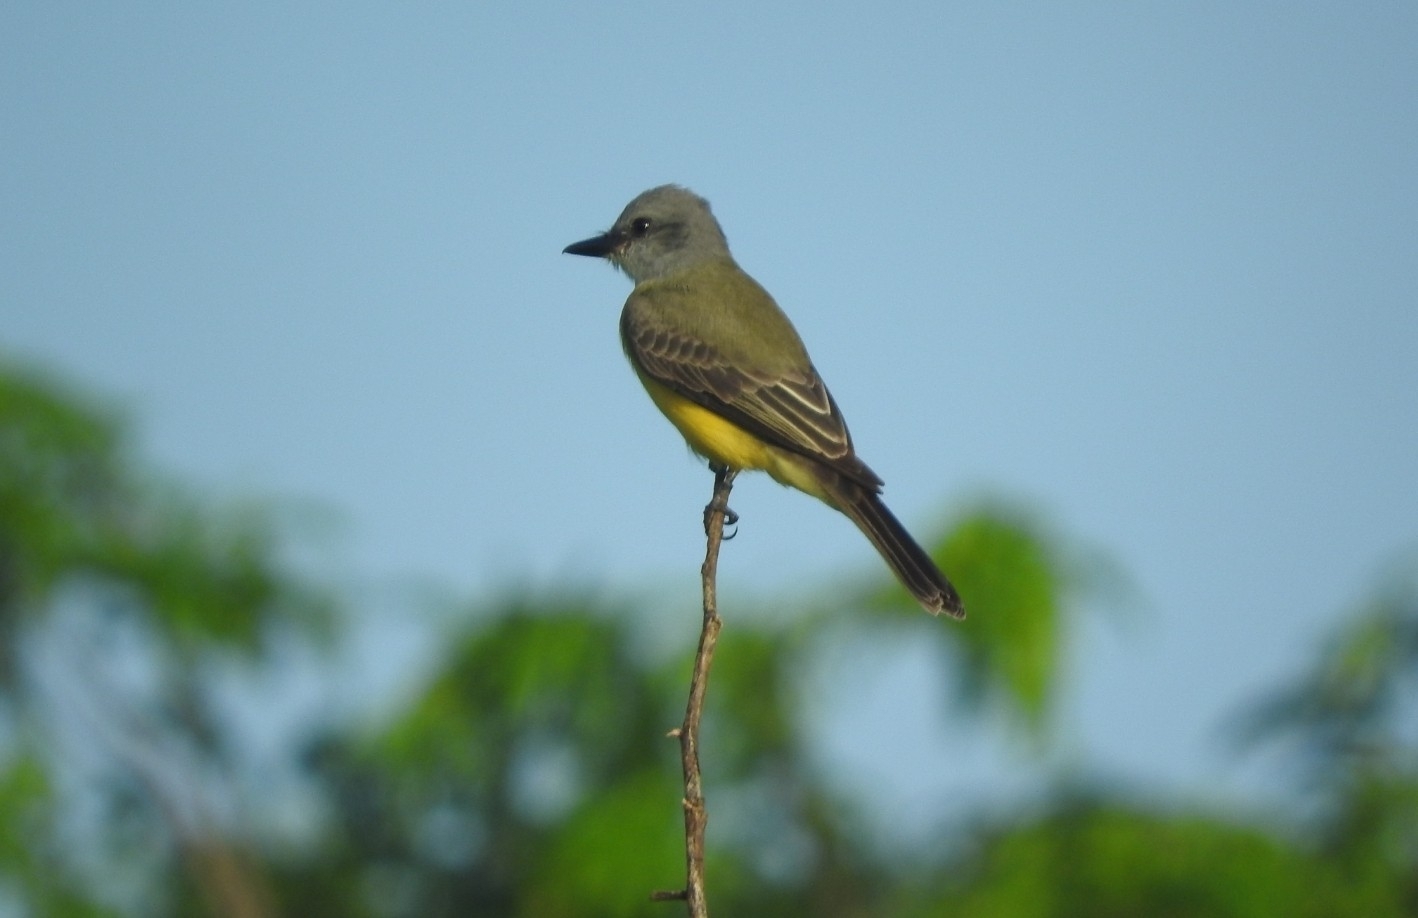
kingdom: Animalia
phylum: Chordata
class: Aves
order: Passeriformes
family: Tyrannidae
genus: Tyrannus
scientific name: Tyrannus melancholicus
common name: Tropical kingbird
